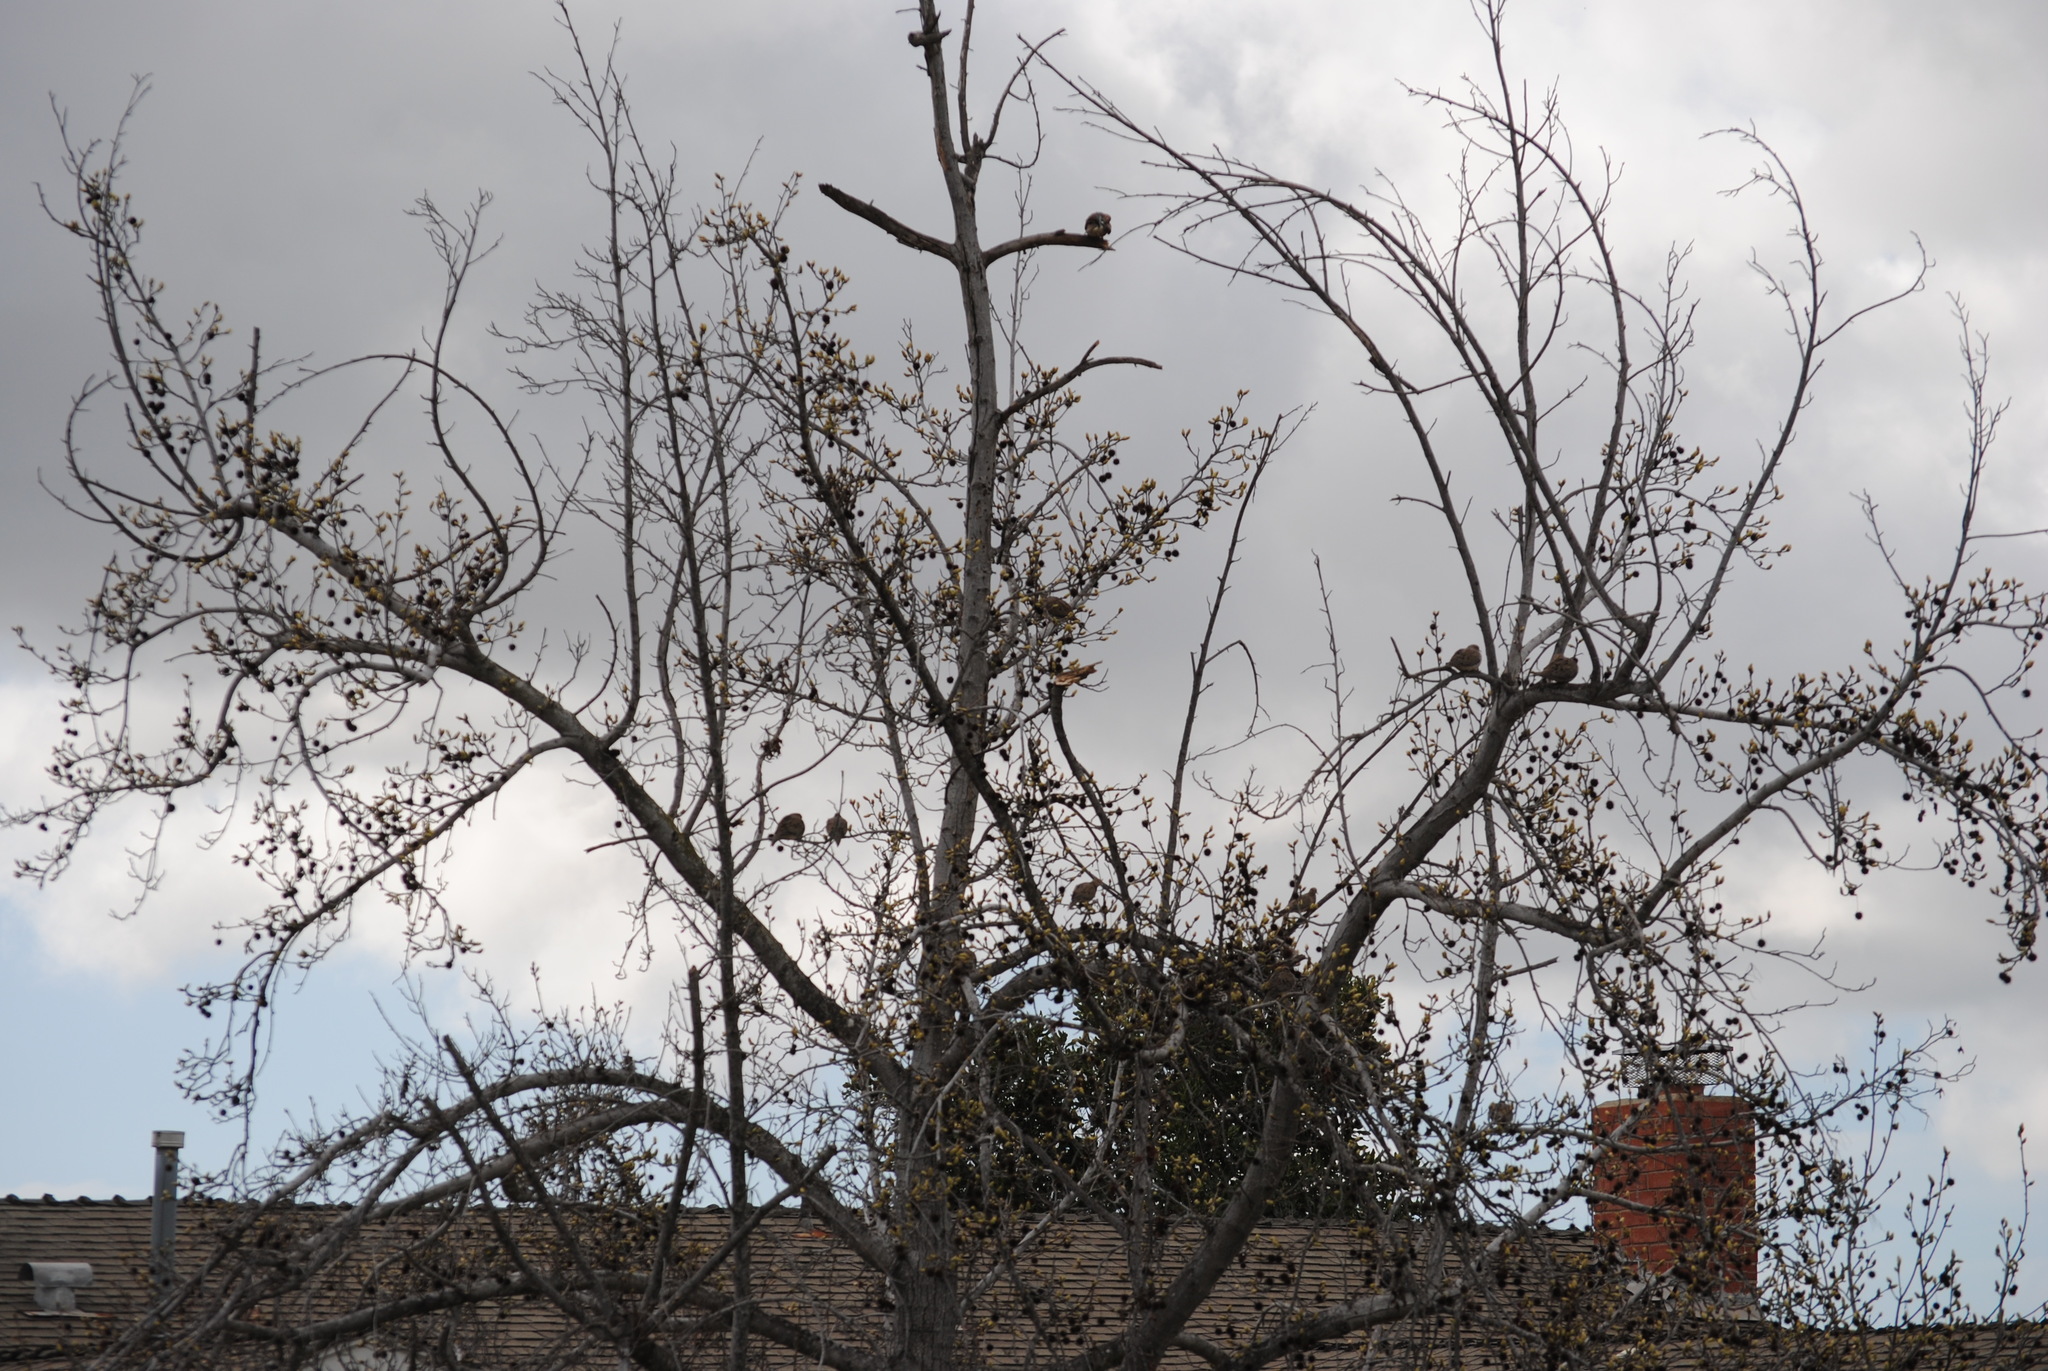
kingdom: Animalia
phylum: Chordata
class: Aves
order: Columbiformes
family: Columbidae
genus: Zenaida
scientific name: Zenaida macroura
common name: Mourning dove
